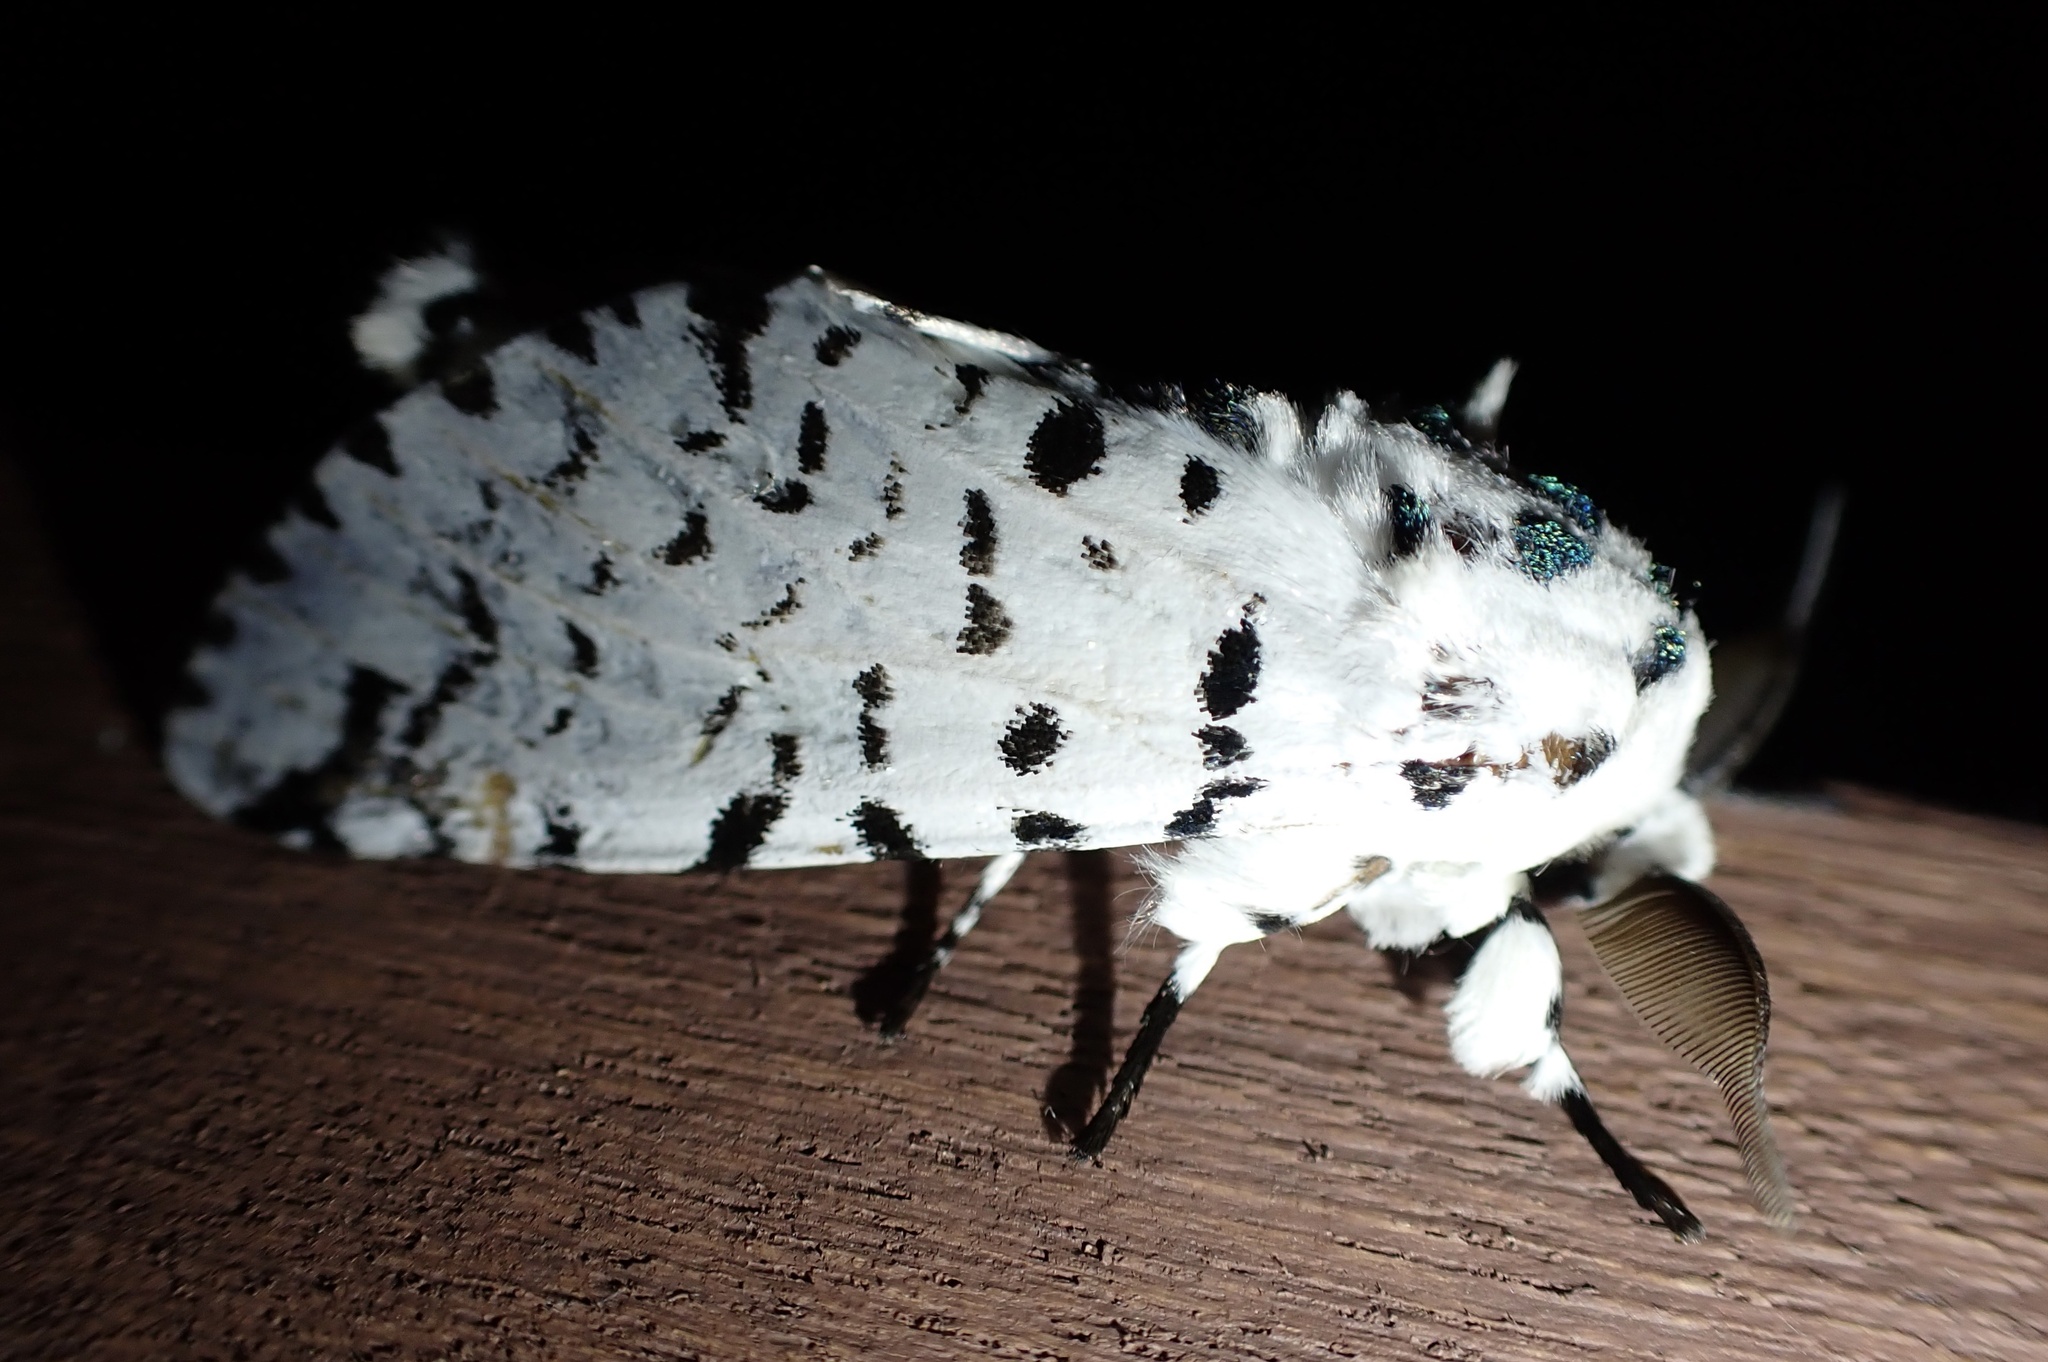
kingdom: Animalia
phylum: Arthropoda
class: Insecta
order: Lepidoptera
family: Notodontidae
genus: Kamalia
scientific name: Kamalia multipunctata
